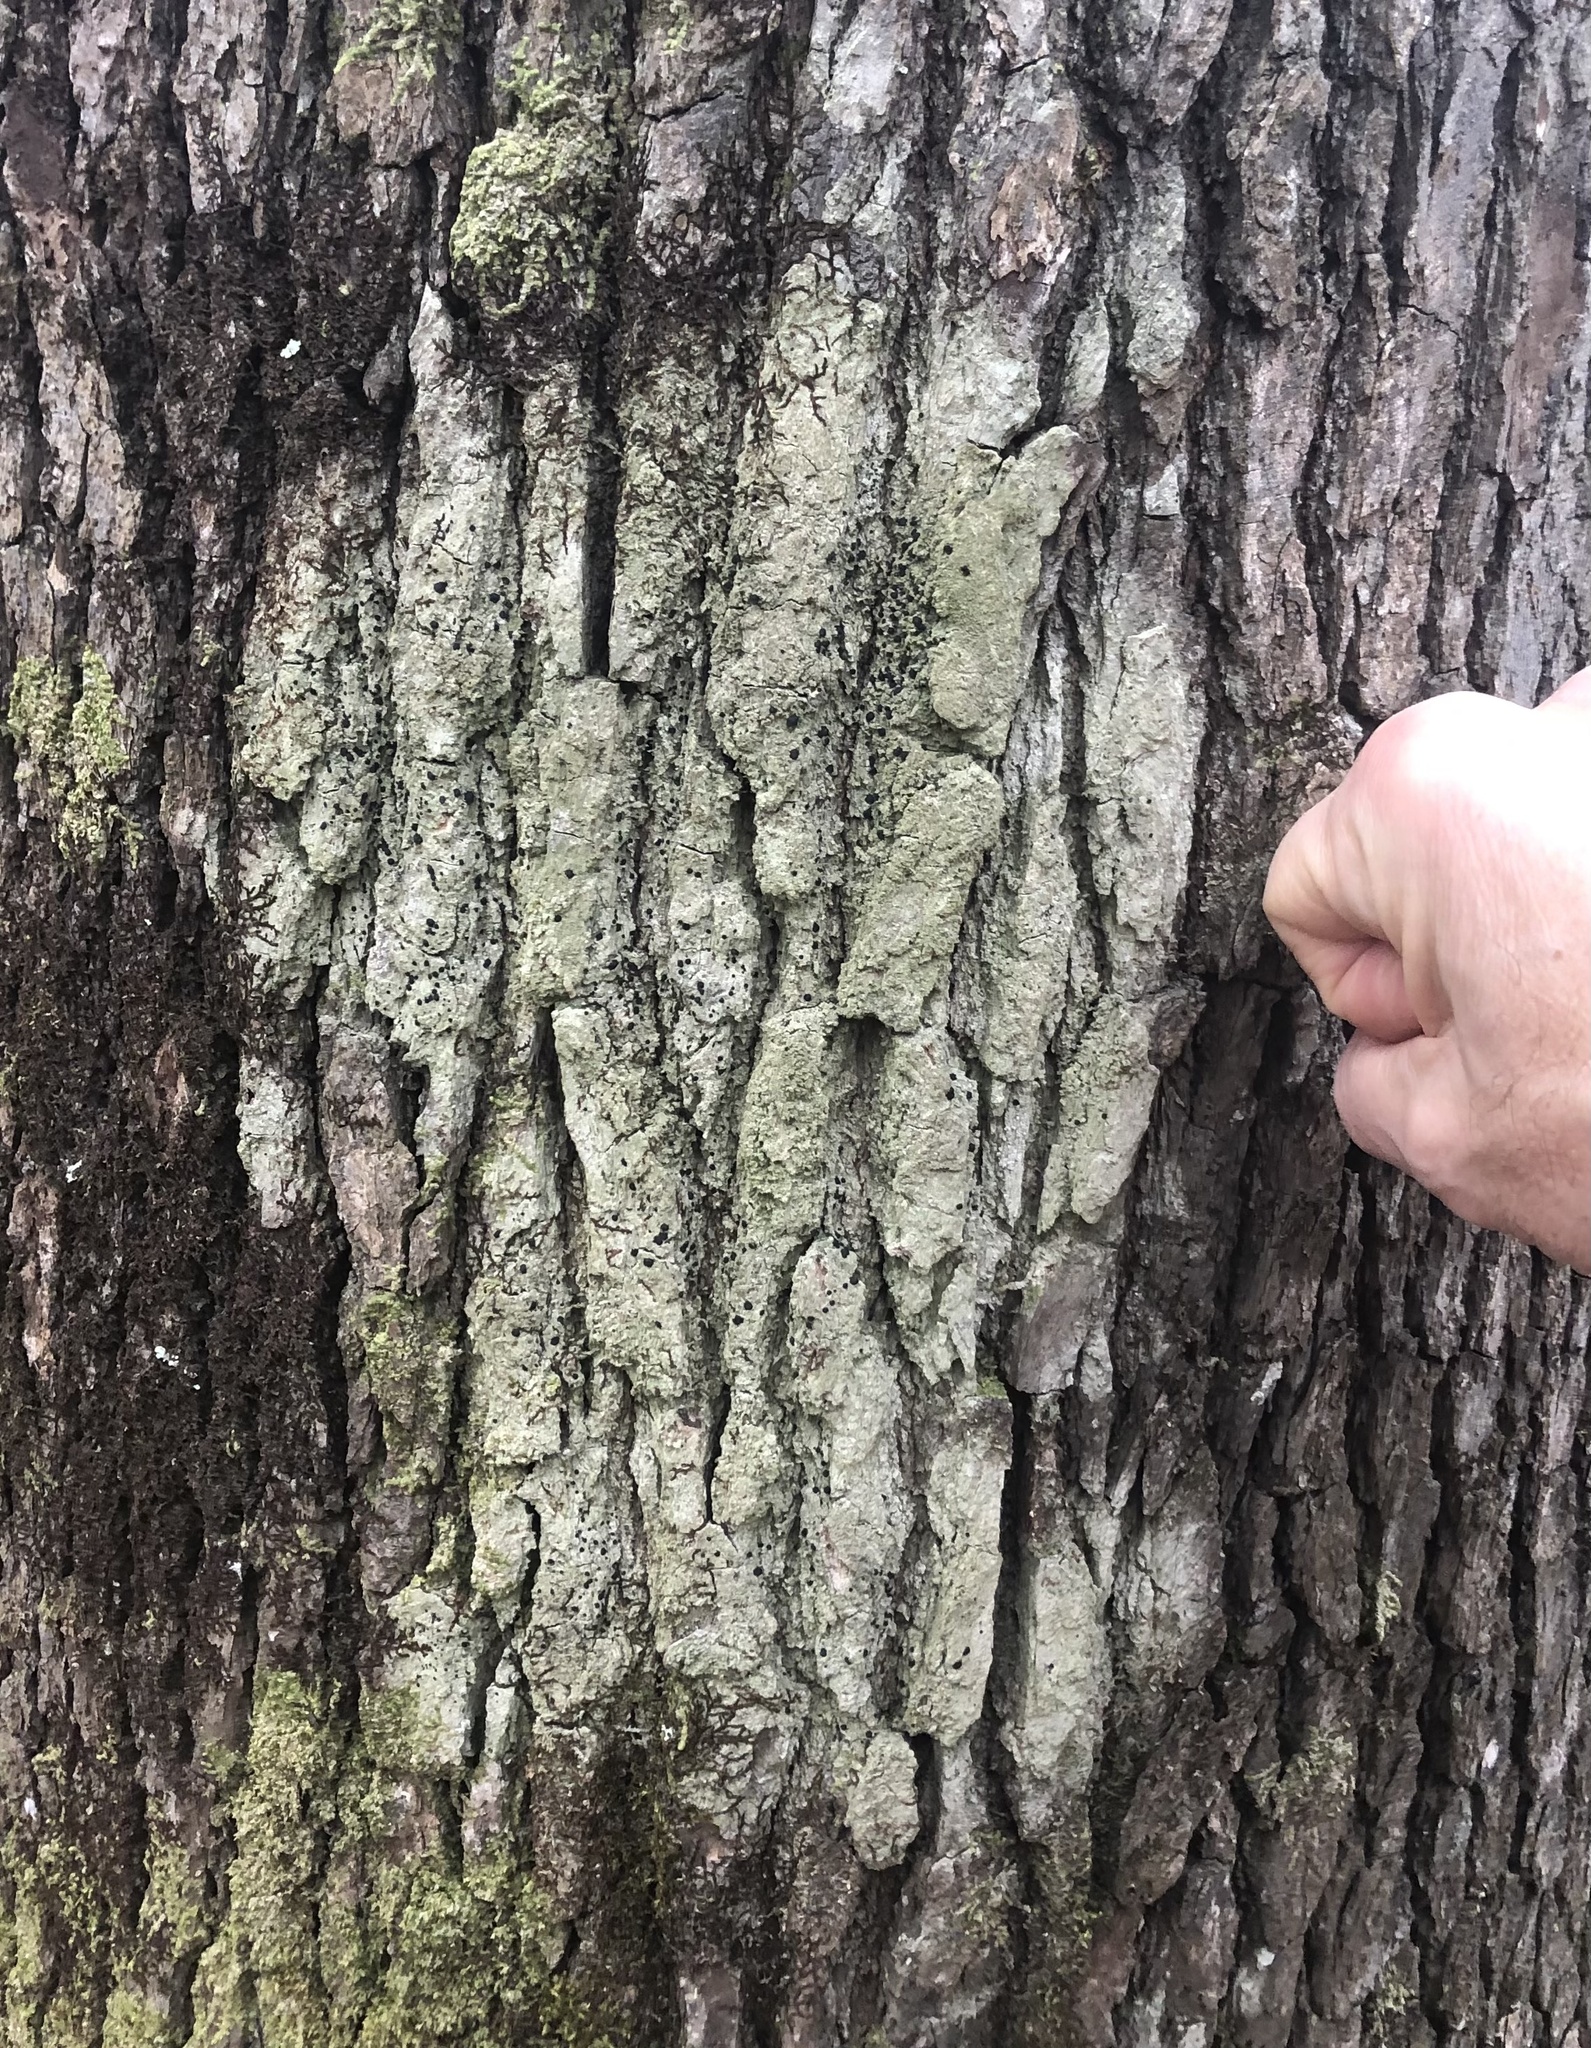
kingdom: Fungi
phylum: Ascomycota
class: Lecanoromycetes
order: Lecanorales
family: Ramalinaceae
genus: Bacidia
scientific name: Bacidia schweinitzii
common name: Surprise lichen
